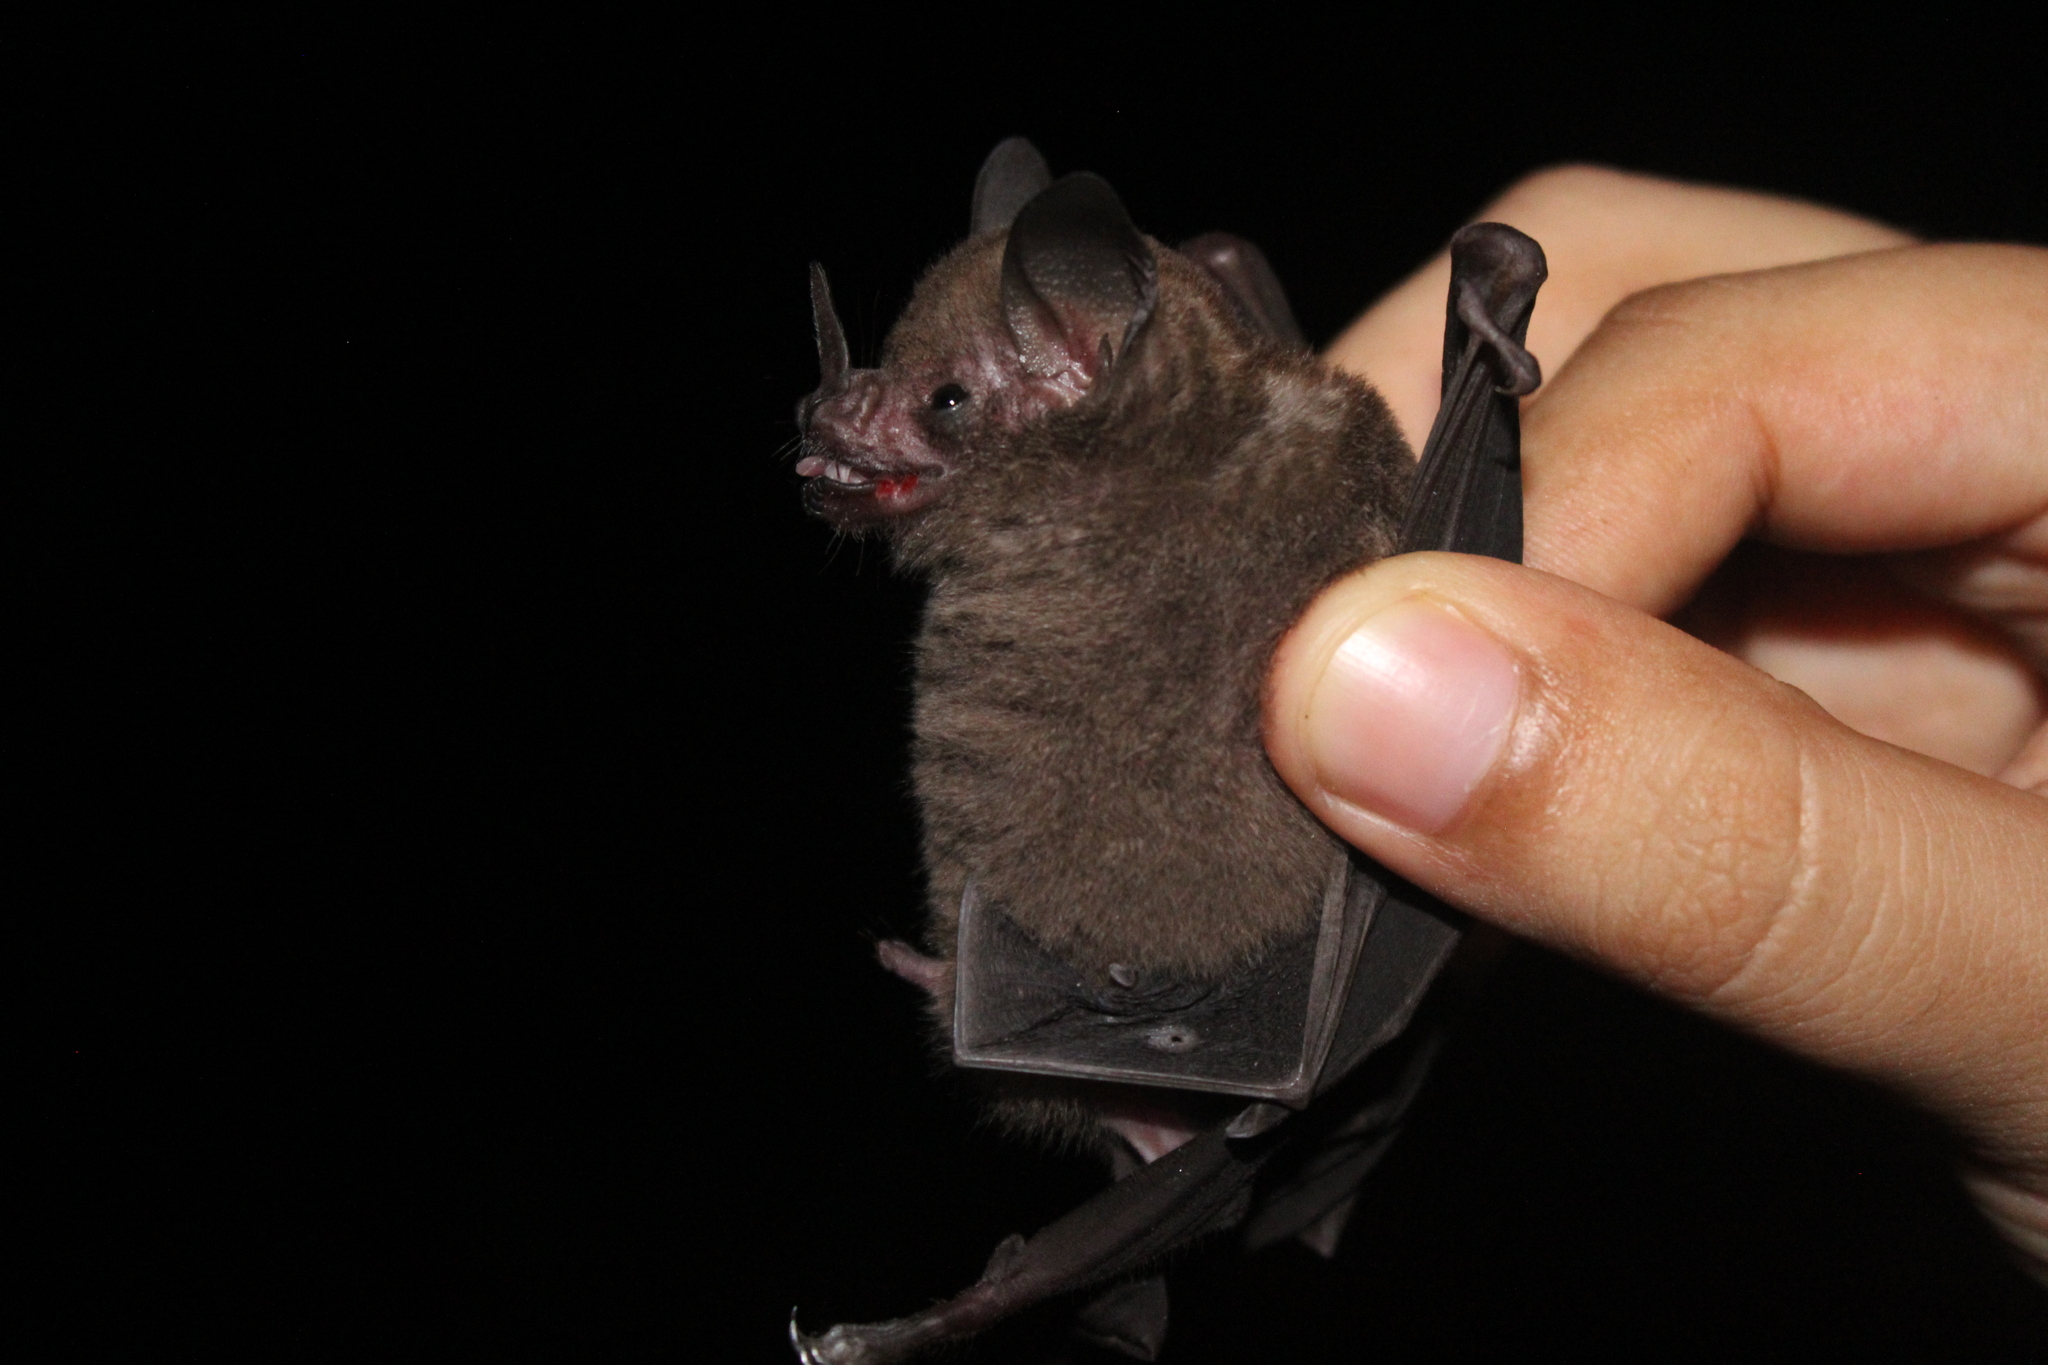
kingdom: Animalia
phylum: Chordata
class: Mammalia
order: Chiroptera
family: Phyllostomidae
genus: Carollia
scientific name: Carollia brevicaudum
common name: Silky short-tailed bat
